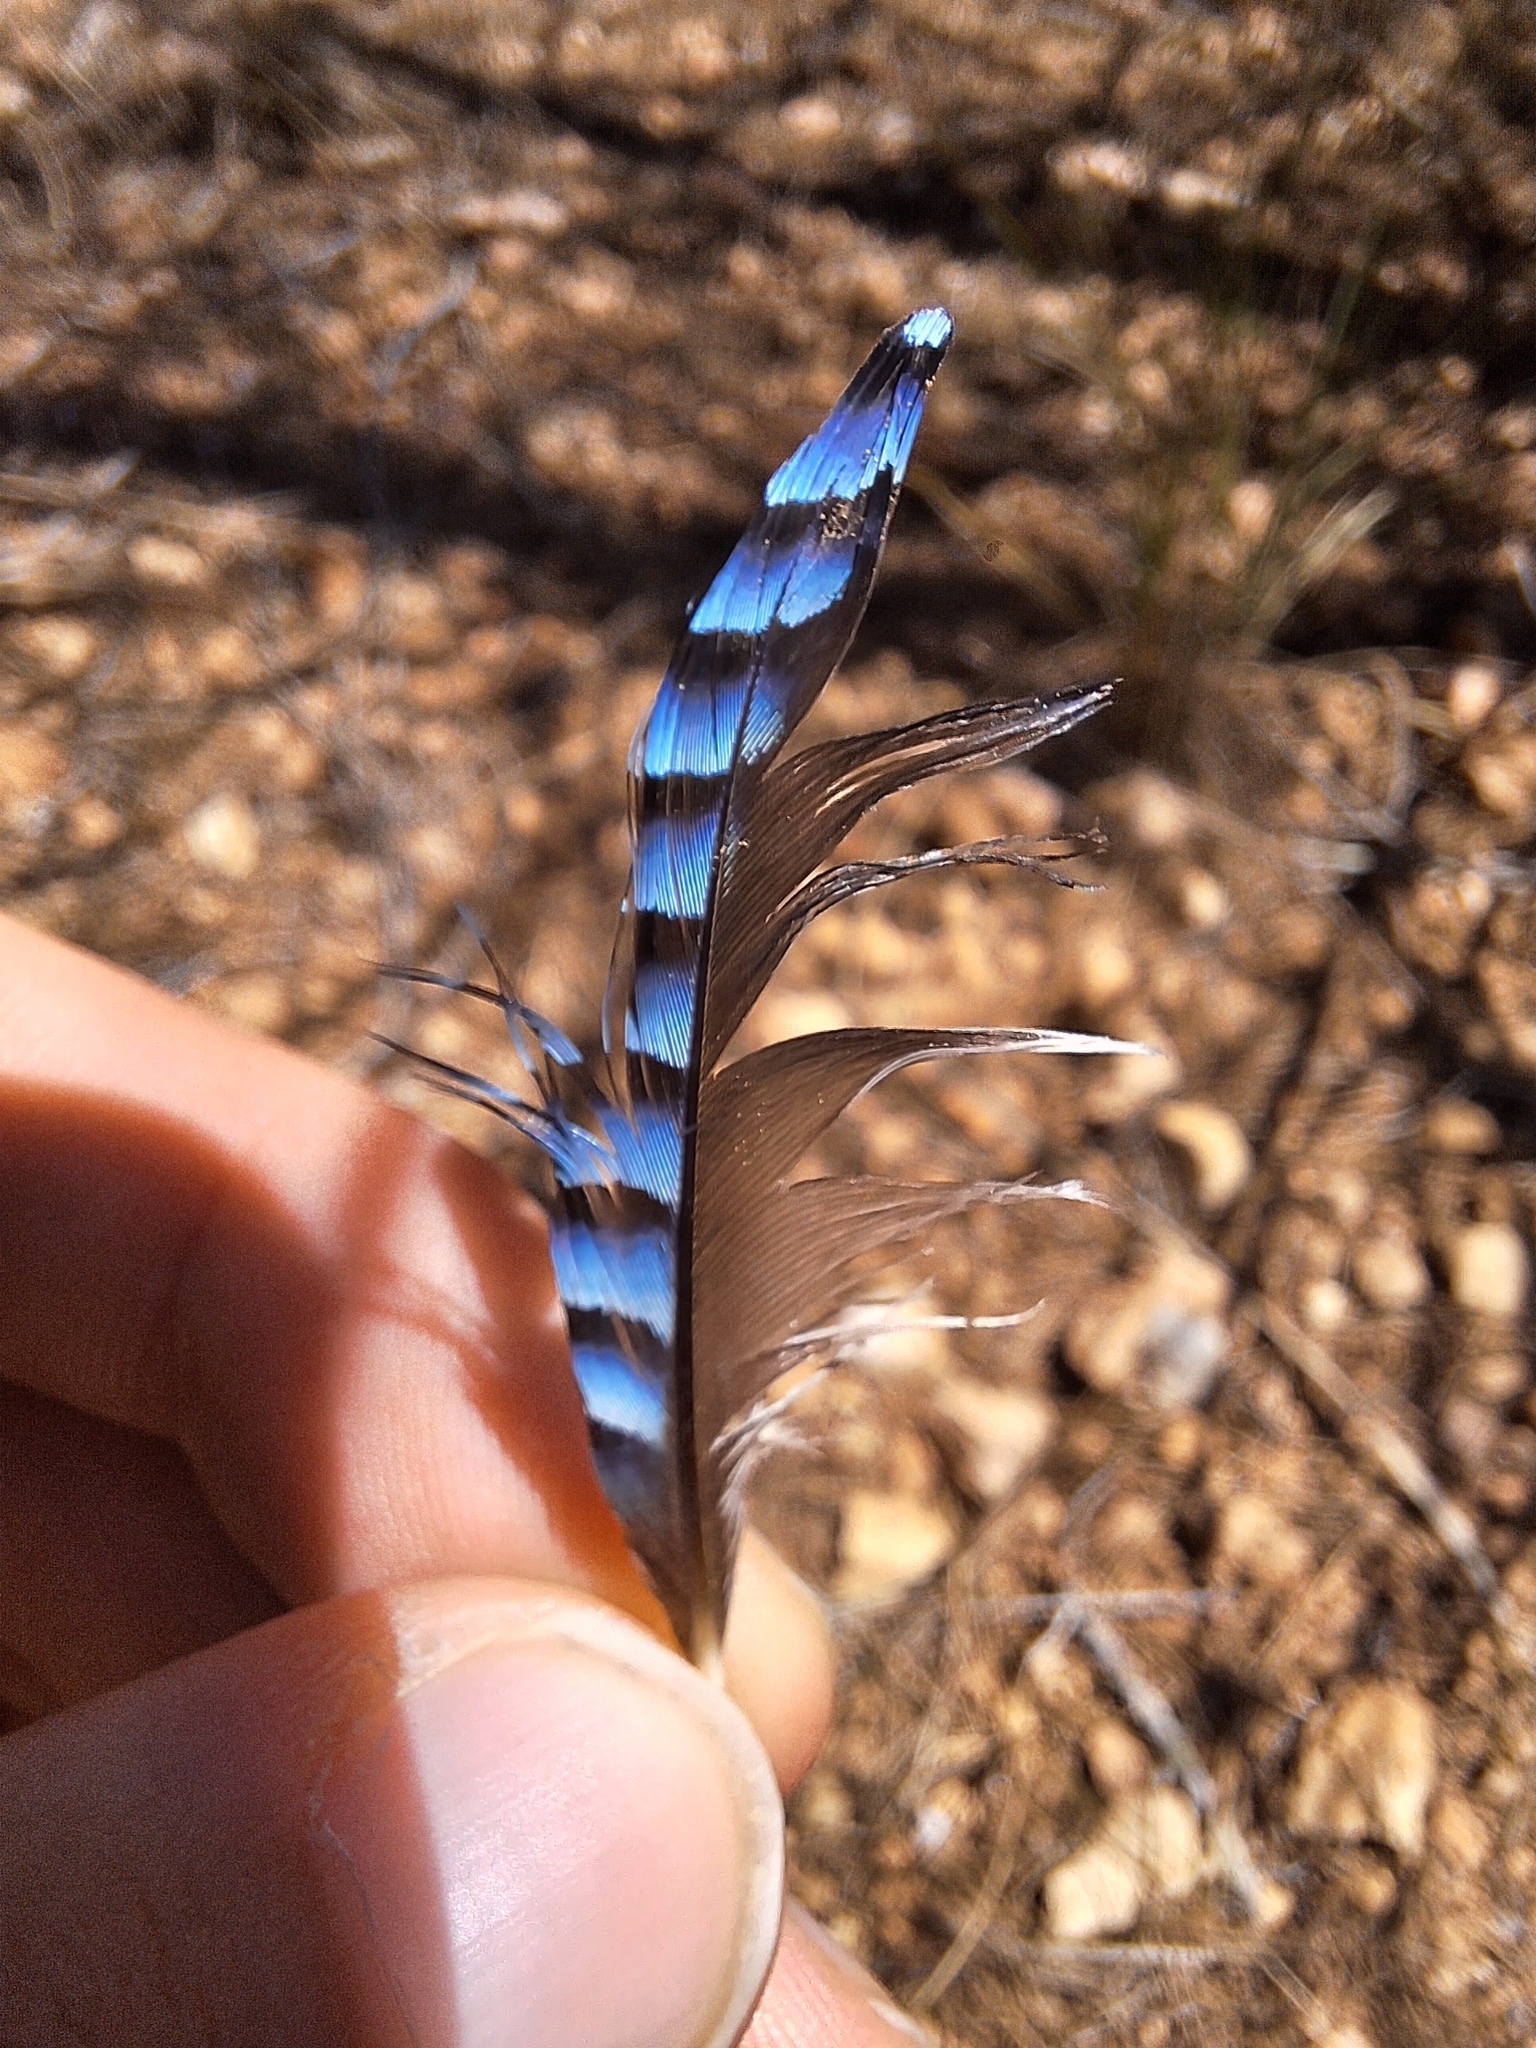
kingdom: Animalia
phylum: Chordata
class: Aves
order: Passeriformes
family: Corvidae
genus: Garrulus
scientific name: Garrulus glandarius
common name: Eurasian jay
